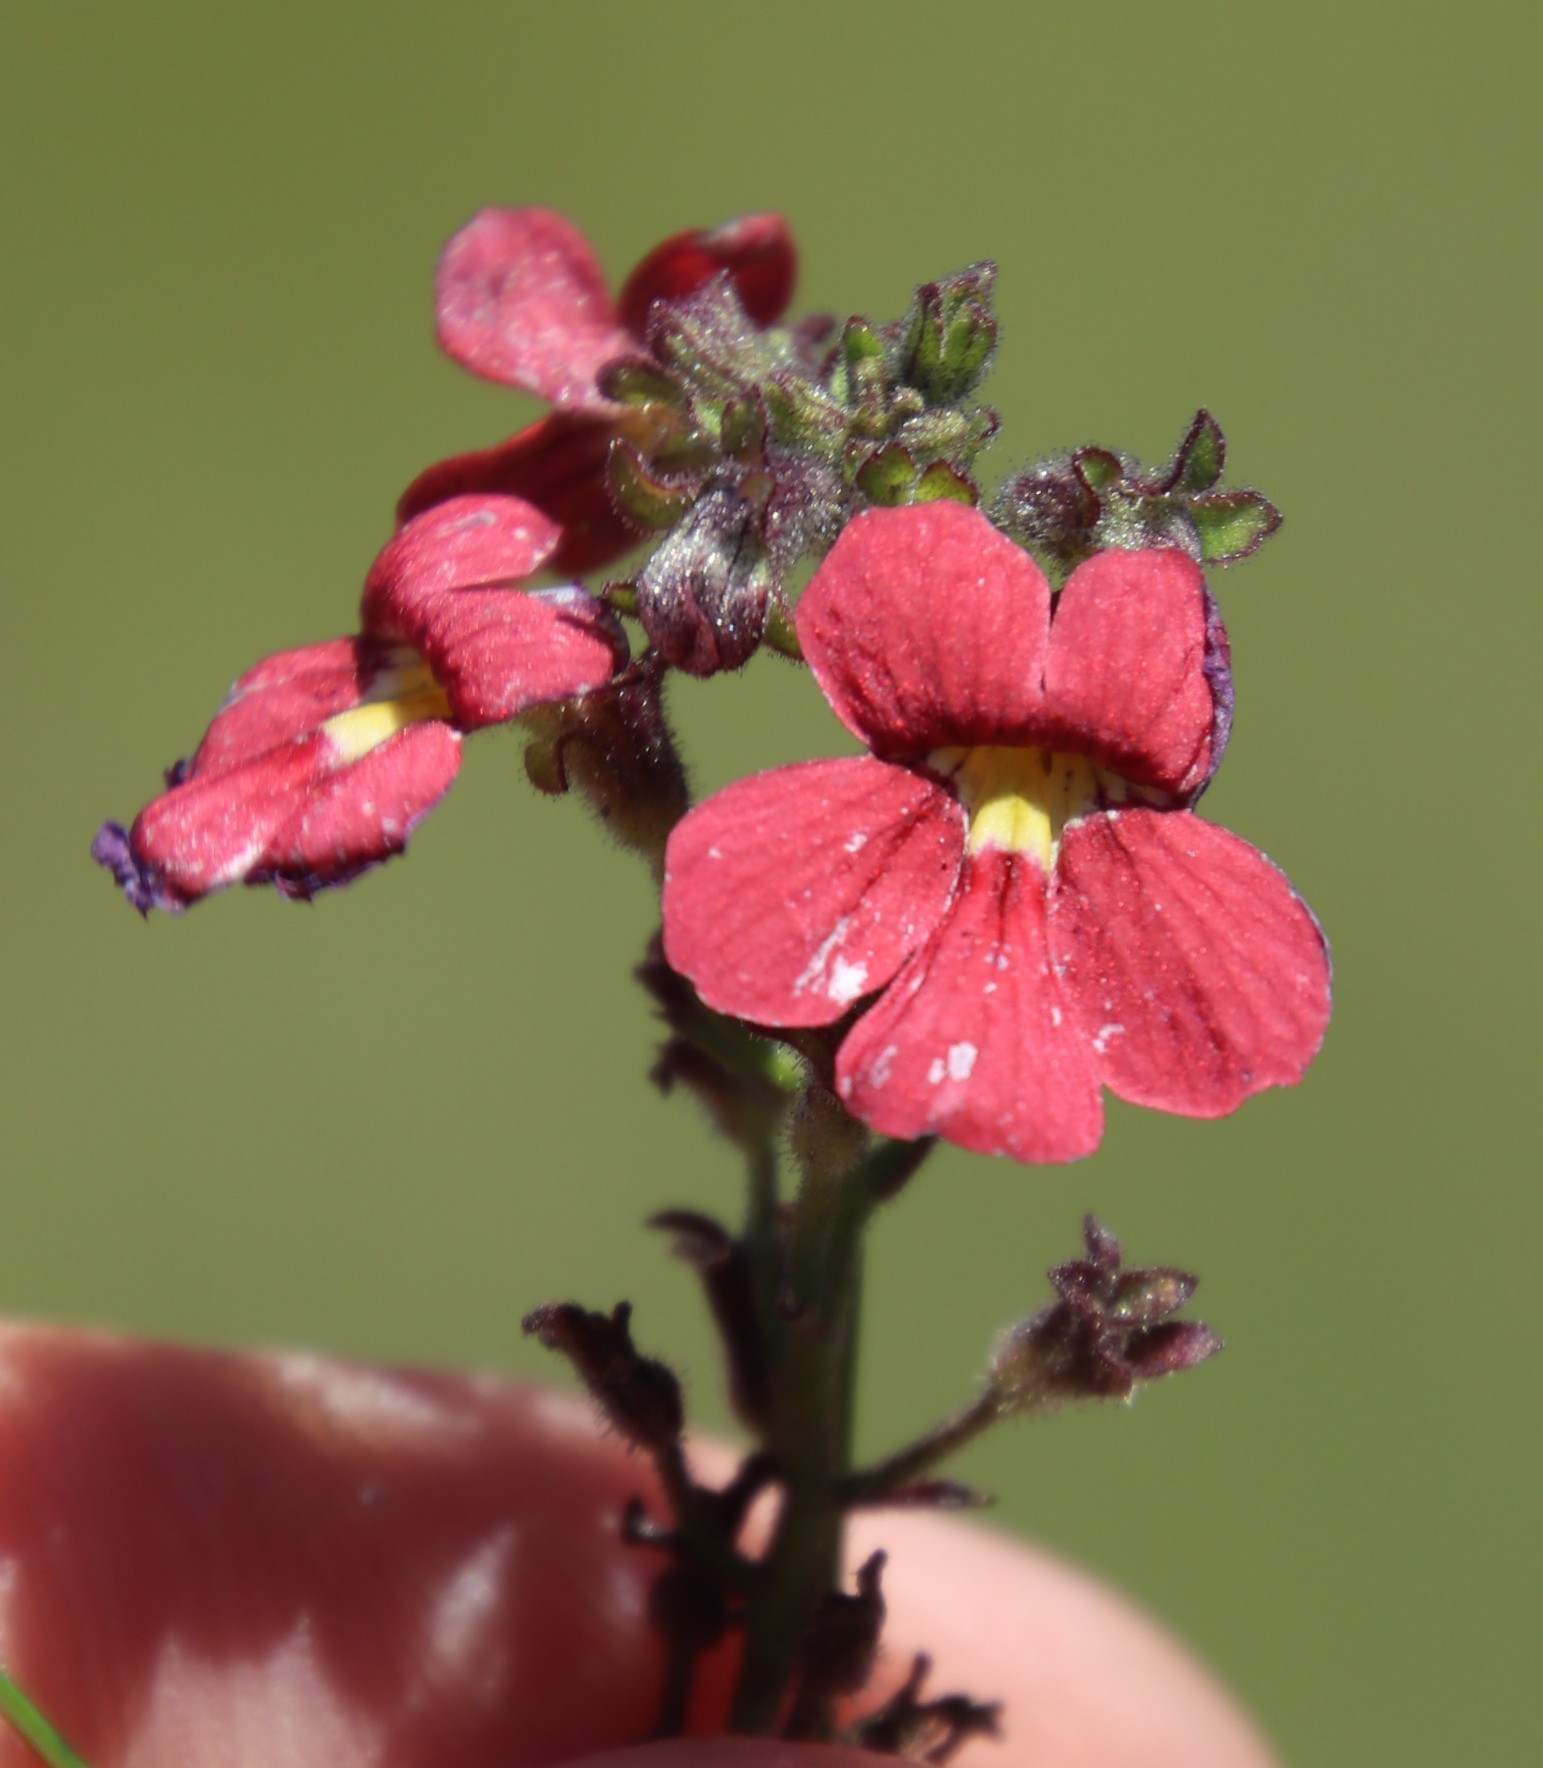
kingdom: Plantae
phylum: Tracheophyta
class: Magnoliopsida
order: Lamiales
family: Scrophulariaceae
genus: Jamesbrittenia
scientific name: Jamesbrittenia breviflora
